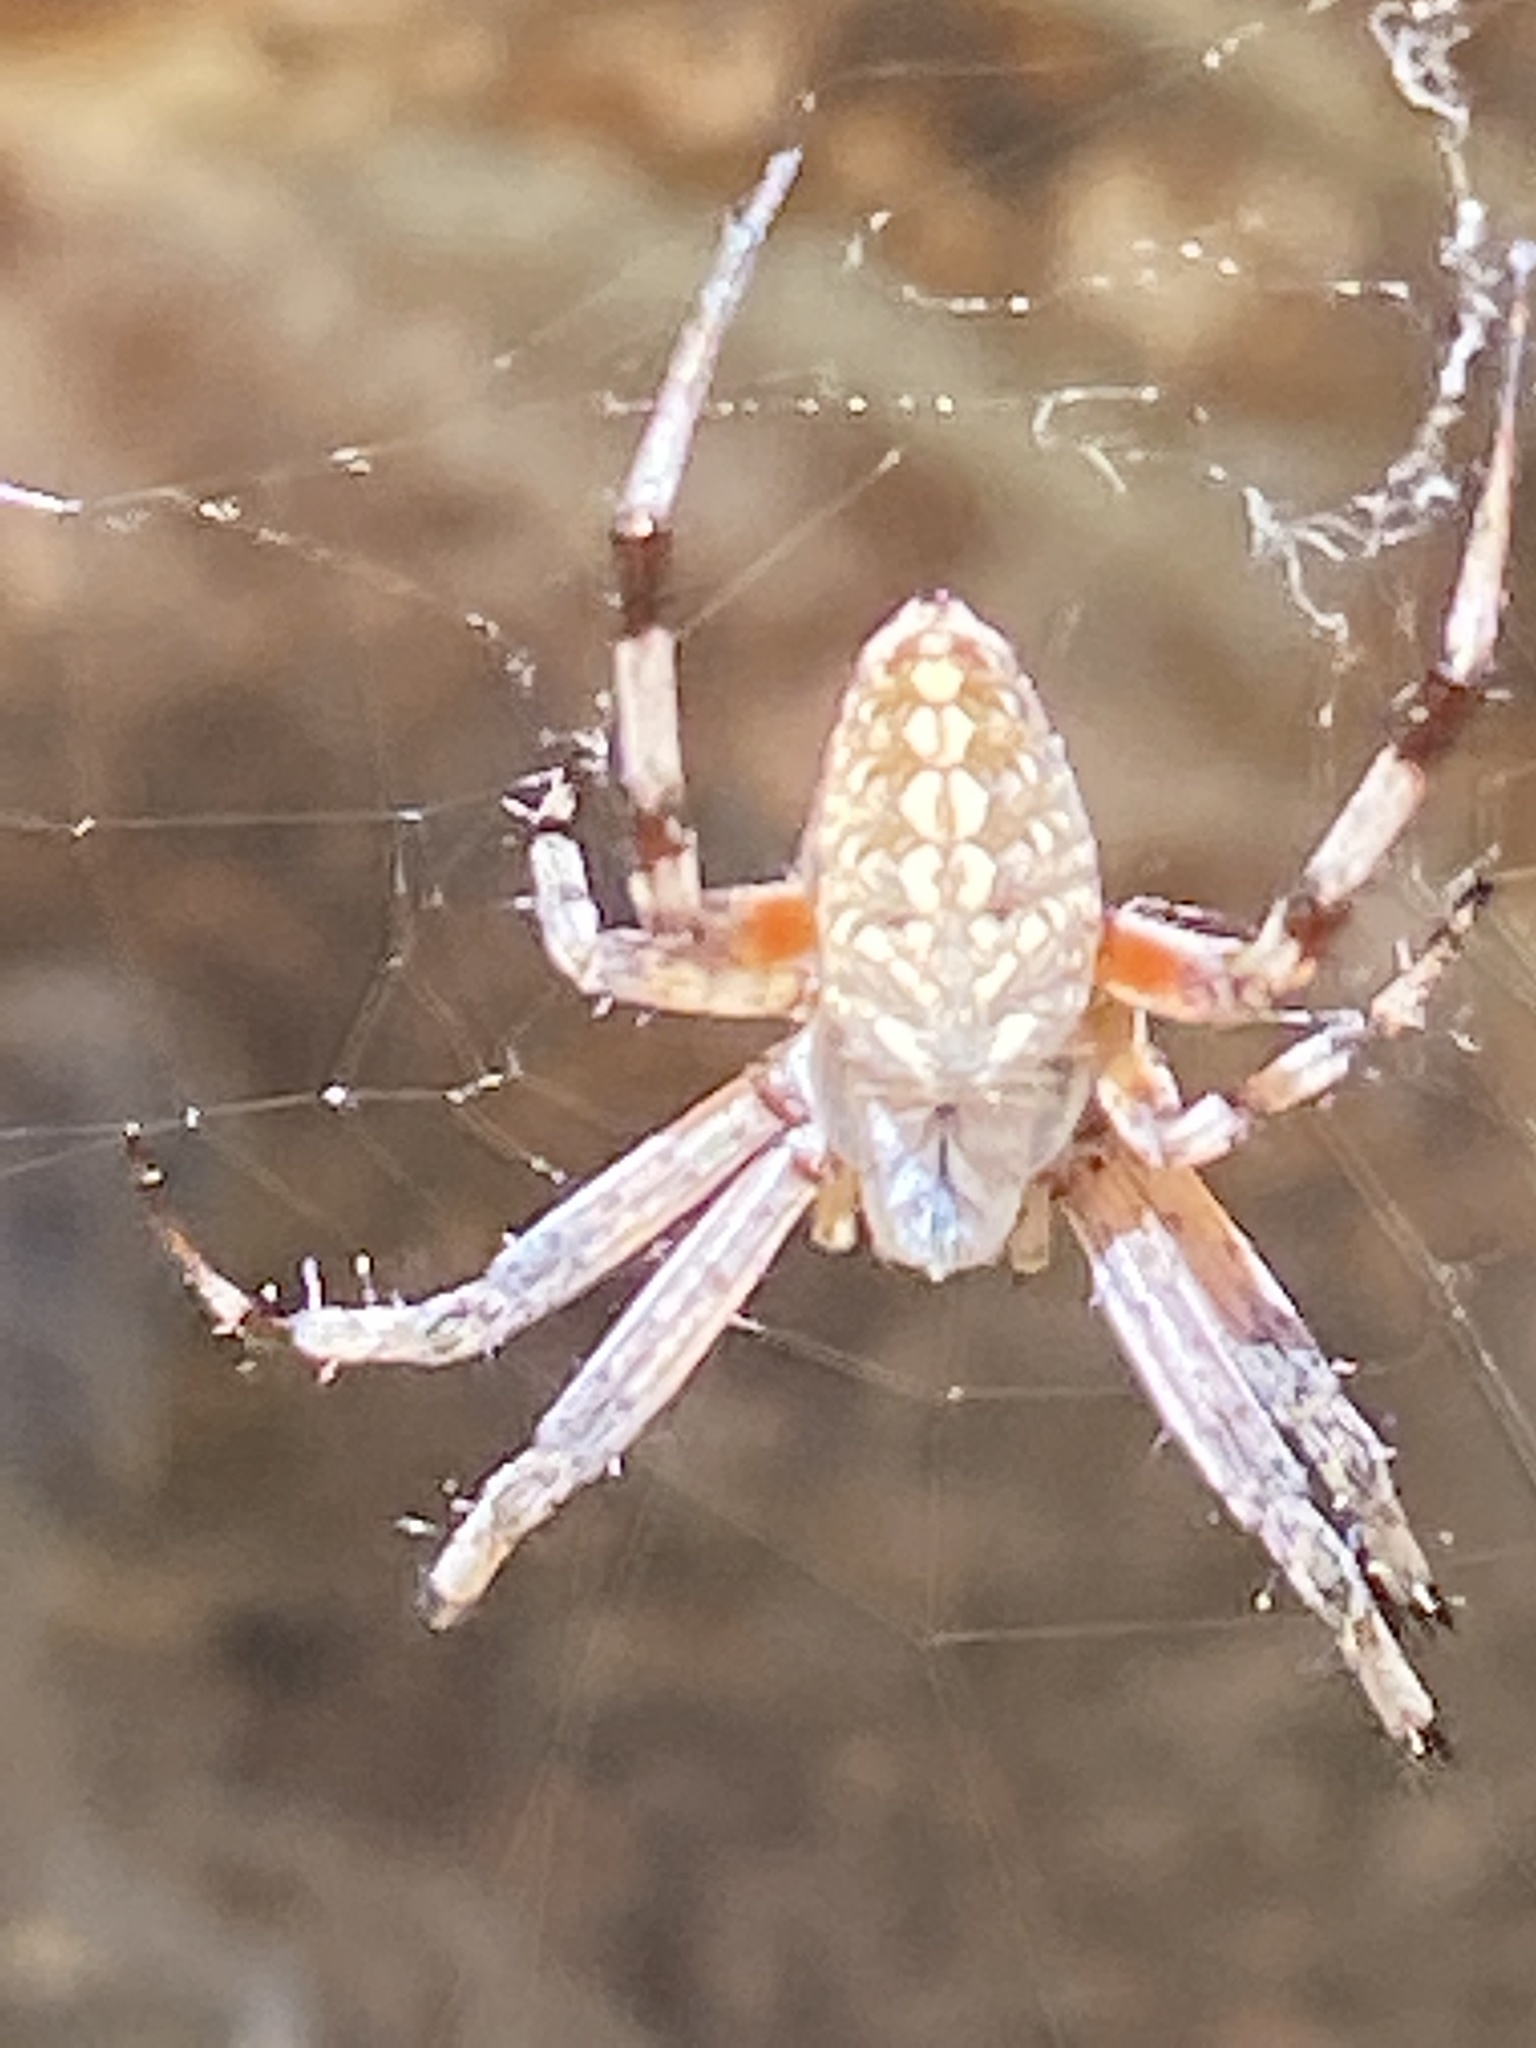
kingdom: Animalia
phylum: Arthropoda
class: Arachnida
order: Araneae
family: Araneidae
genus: Neoscona
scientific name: Neoscona oaxacensis
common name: Orb weavers
